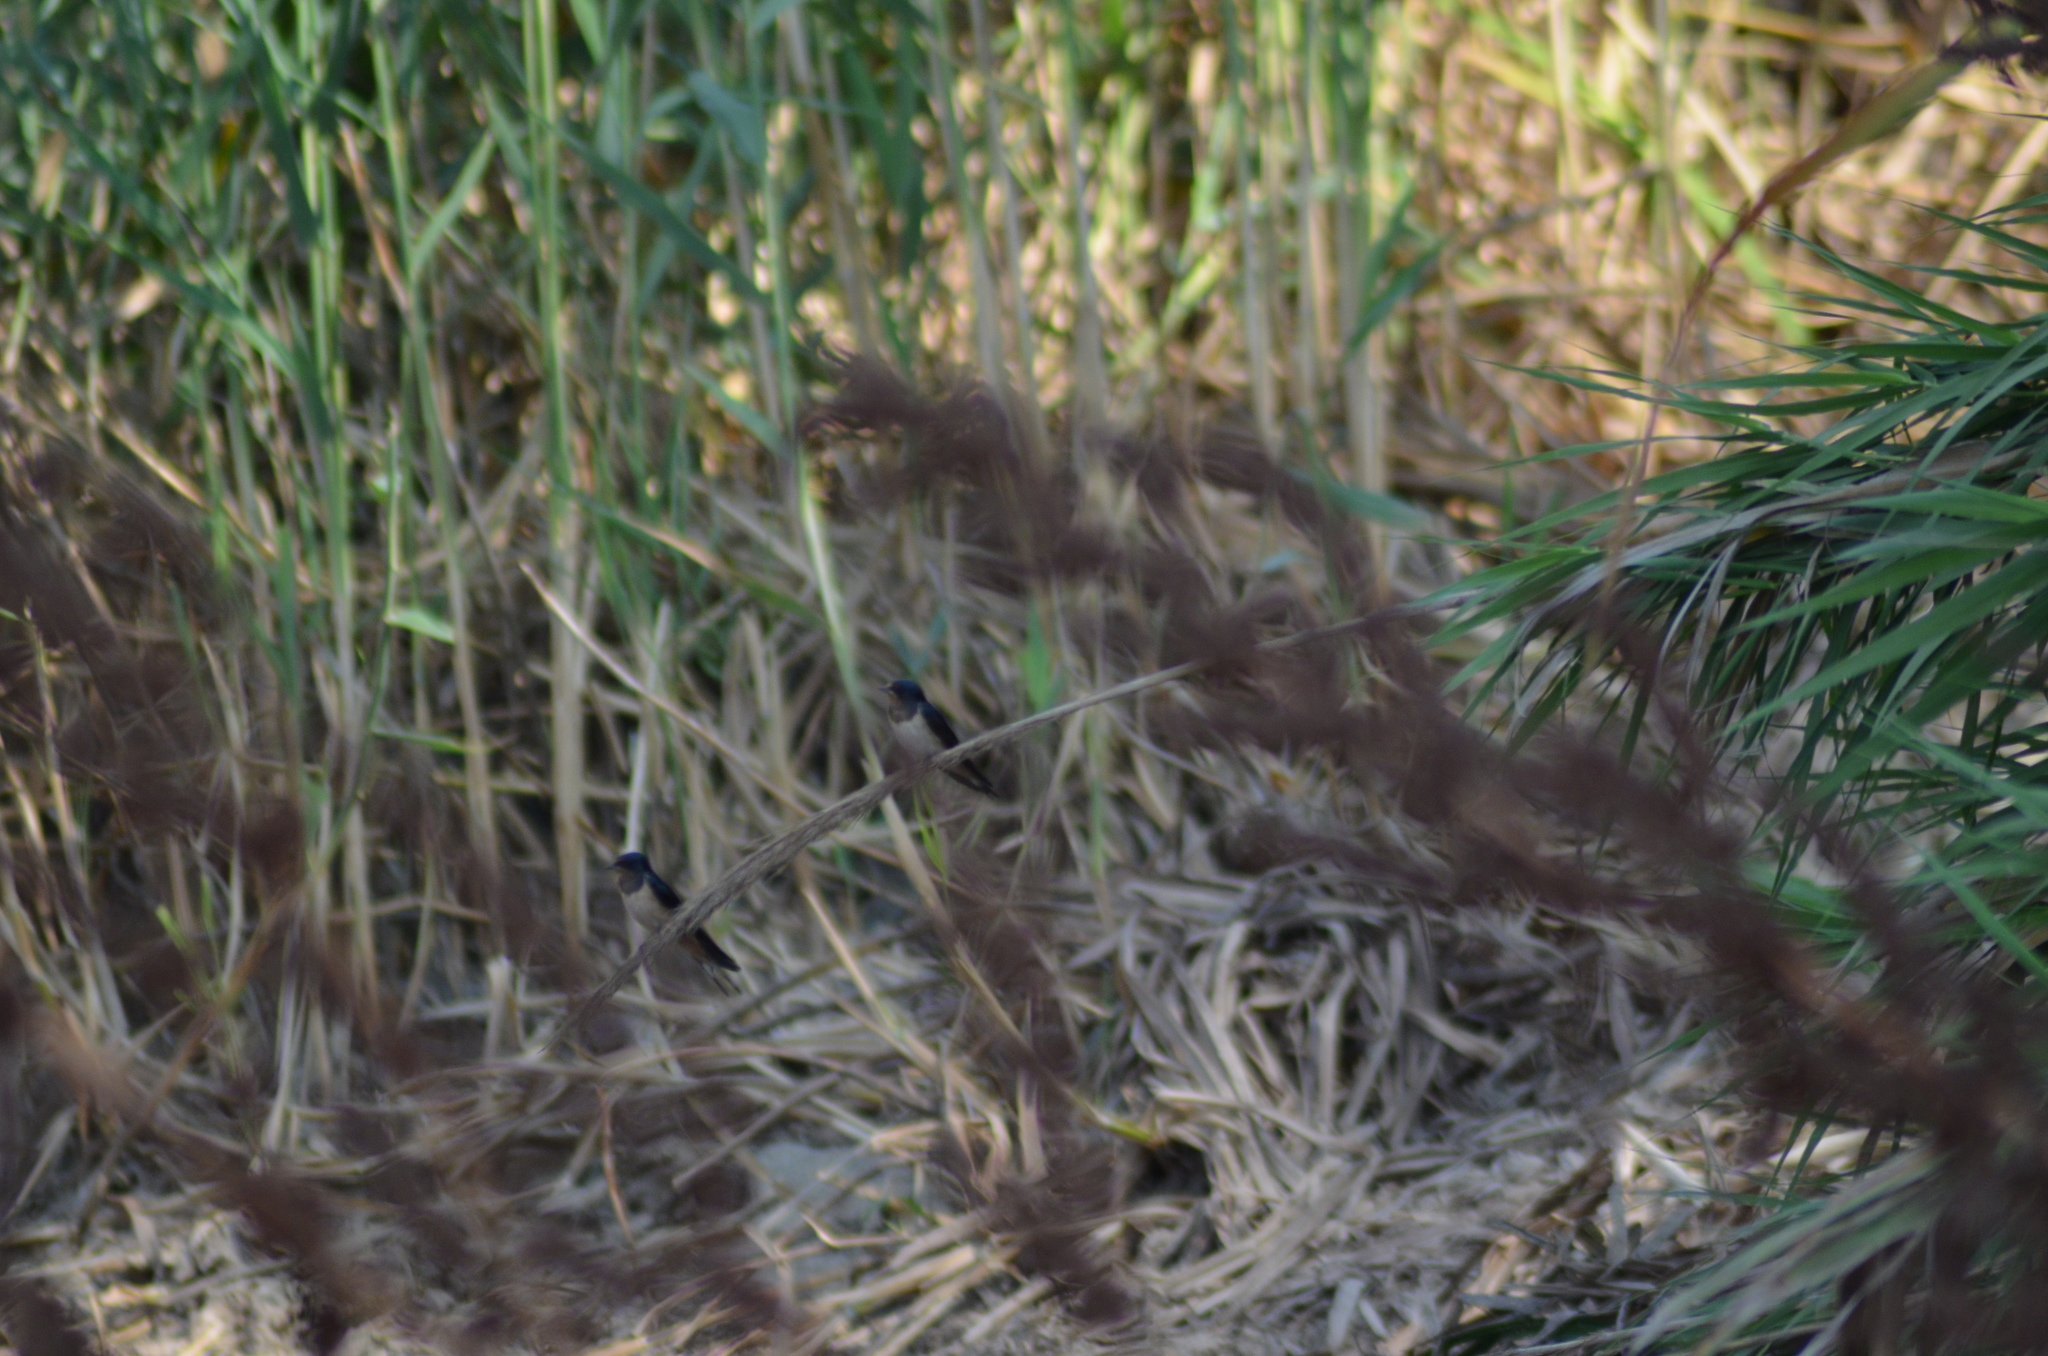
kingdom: Animalia
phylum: Chordata
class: Aves
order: Passeriformes
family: Hirundinidae
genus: Hirundo
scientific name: Hirundo rustica
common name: Barn swallow
